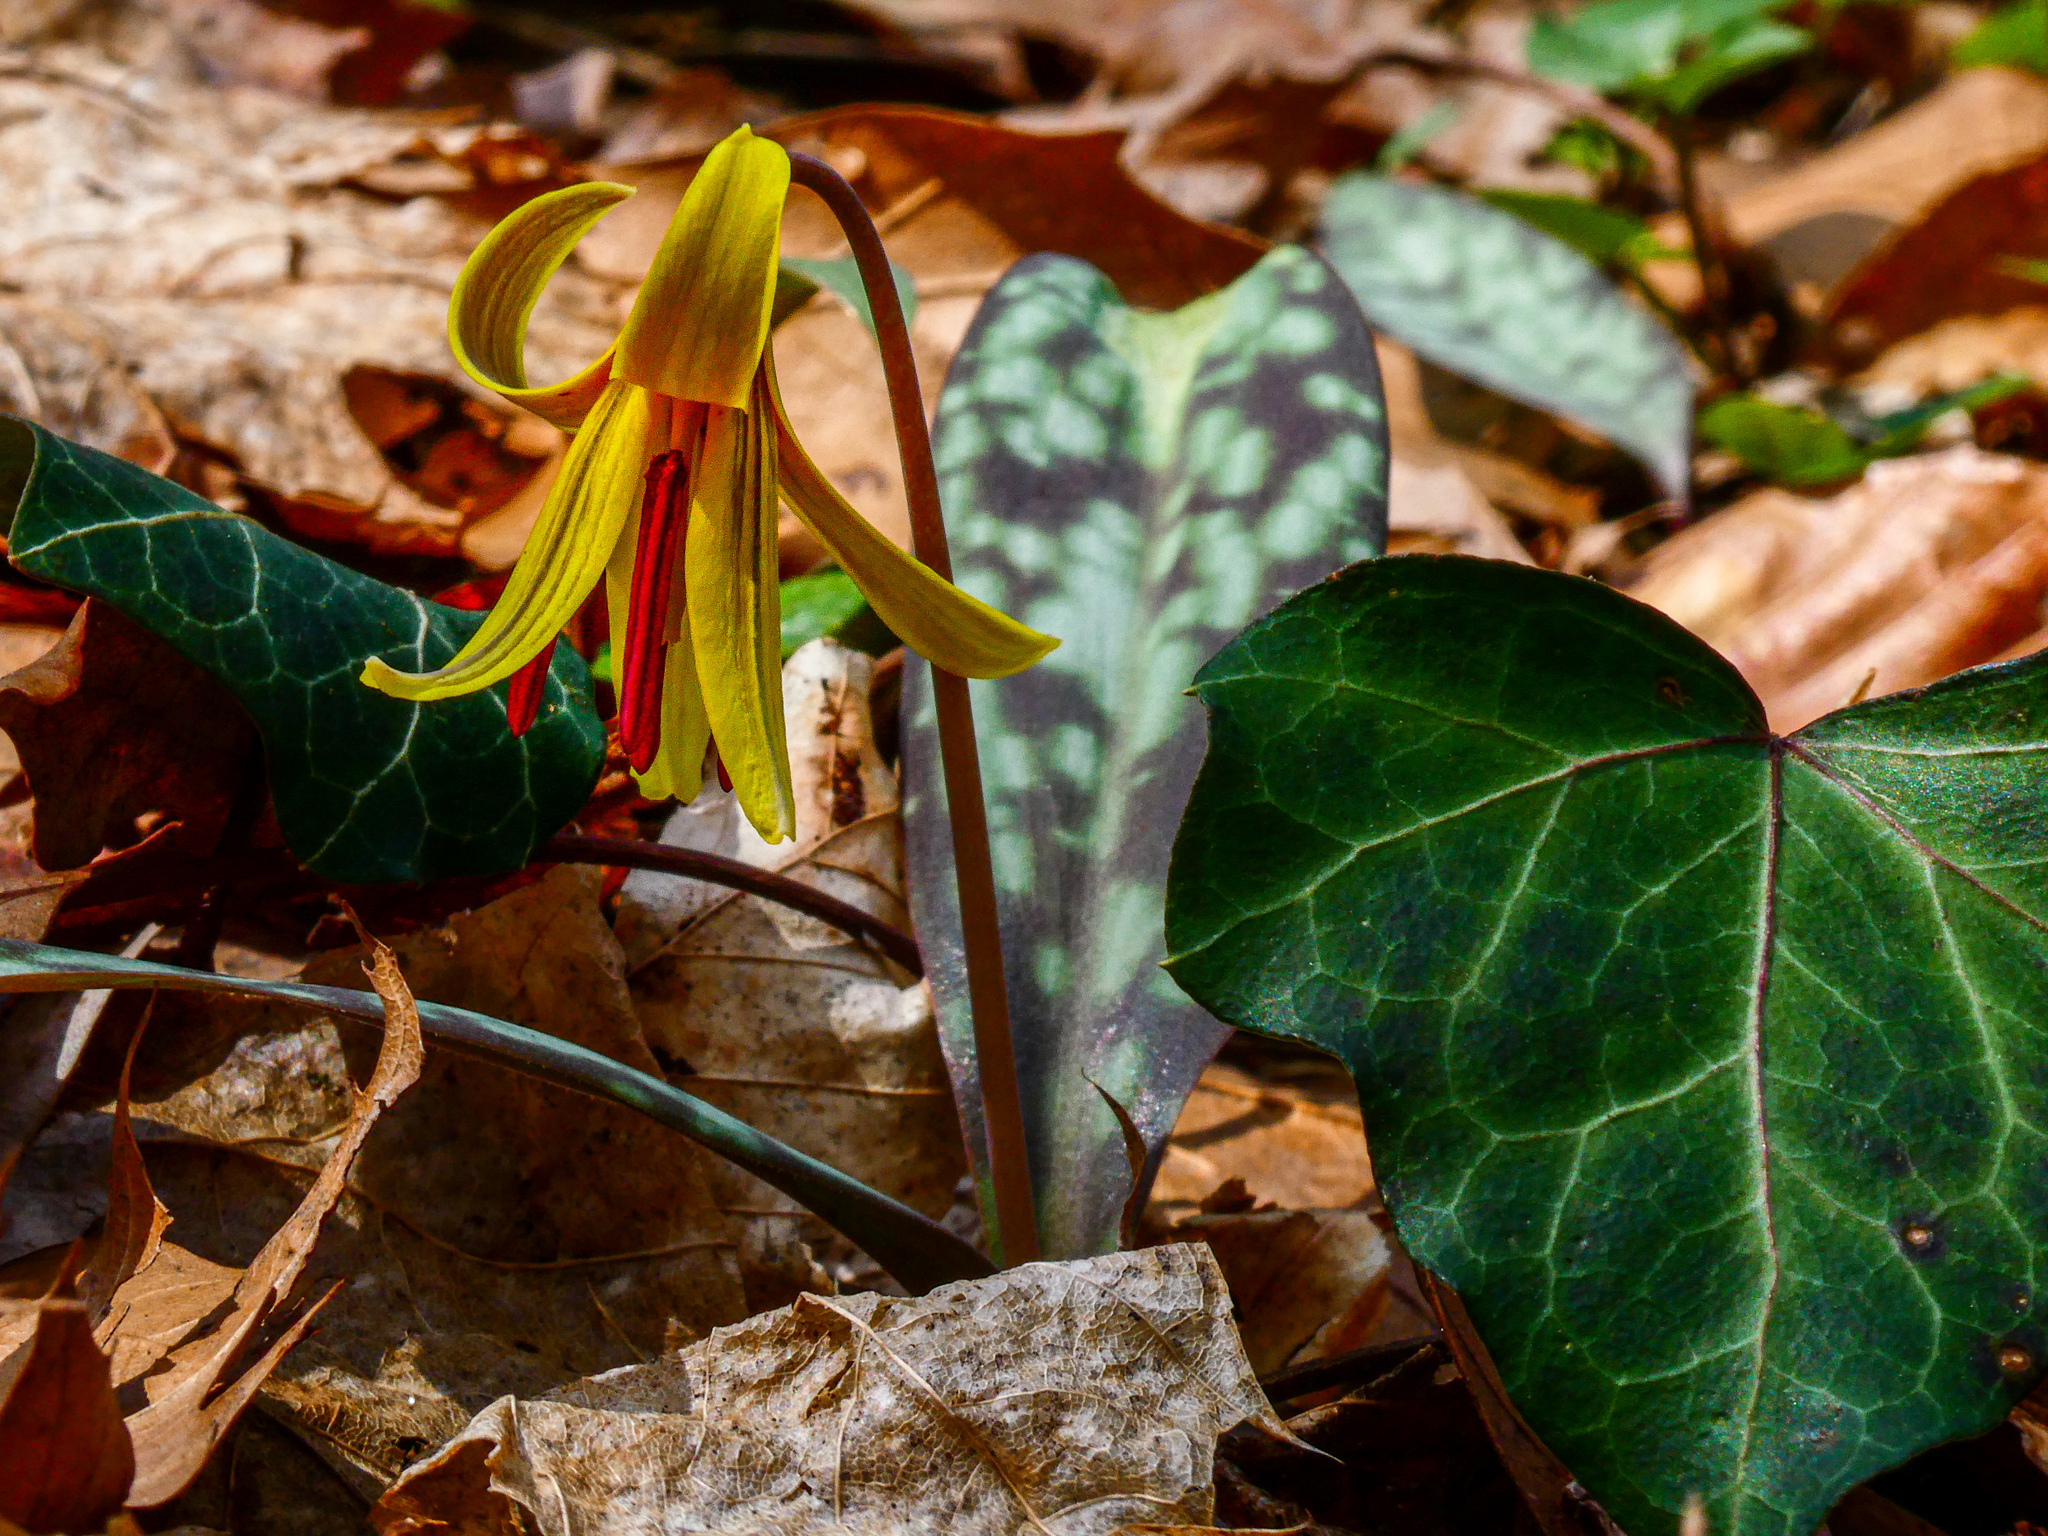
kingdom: Plantae
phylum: Tracheophyta
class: Liliopsida
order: Liliales
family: Liliaceae
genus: Erythronium
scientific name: Erythronium americanum
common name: Yellow adder's-tongue
